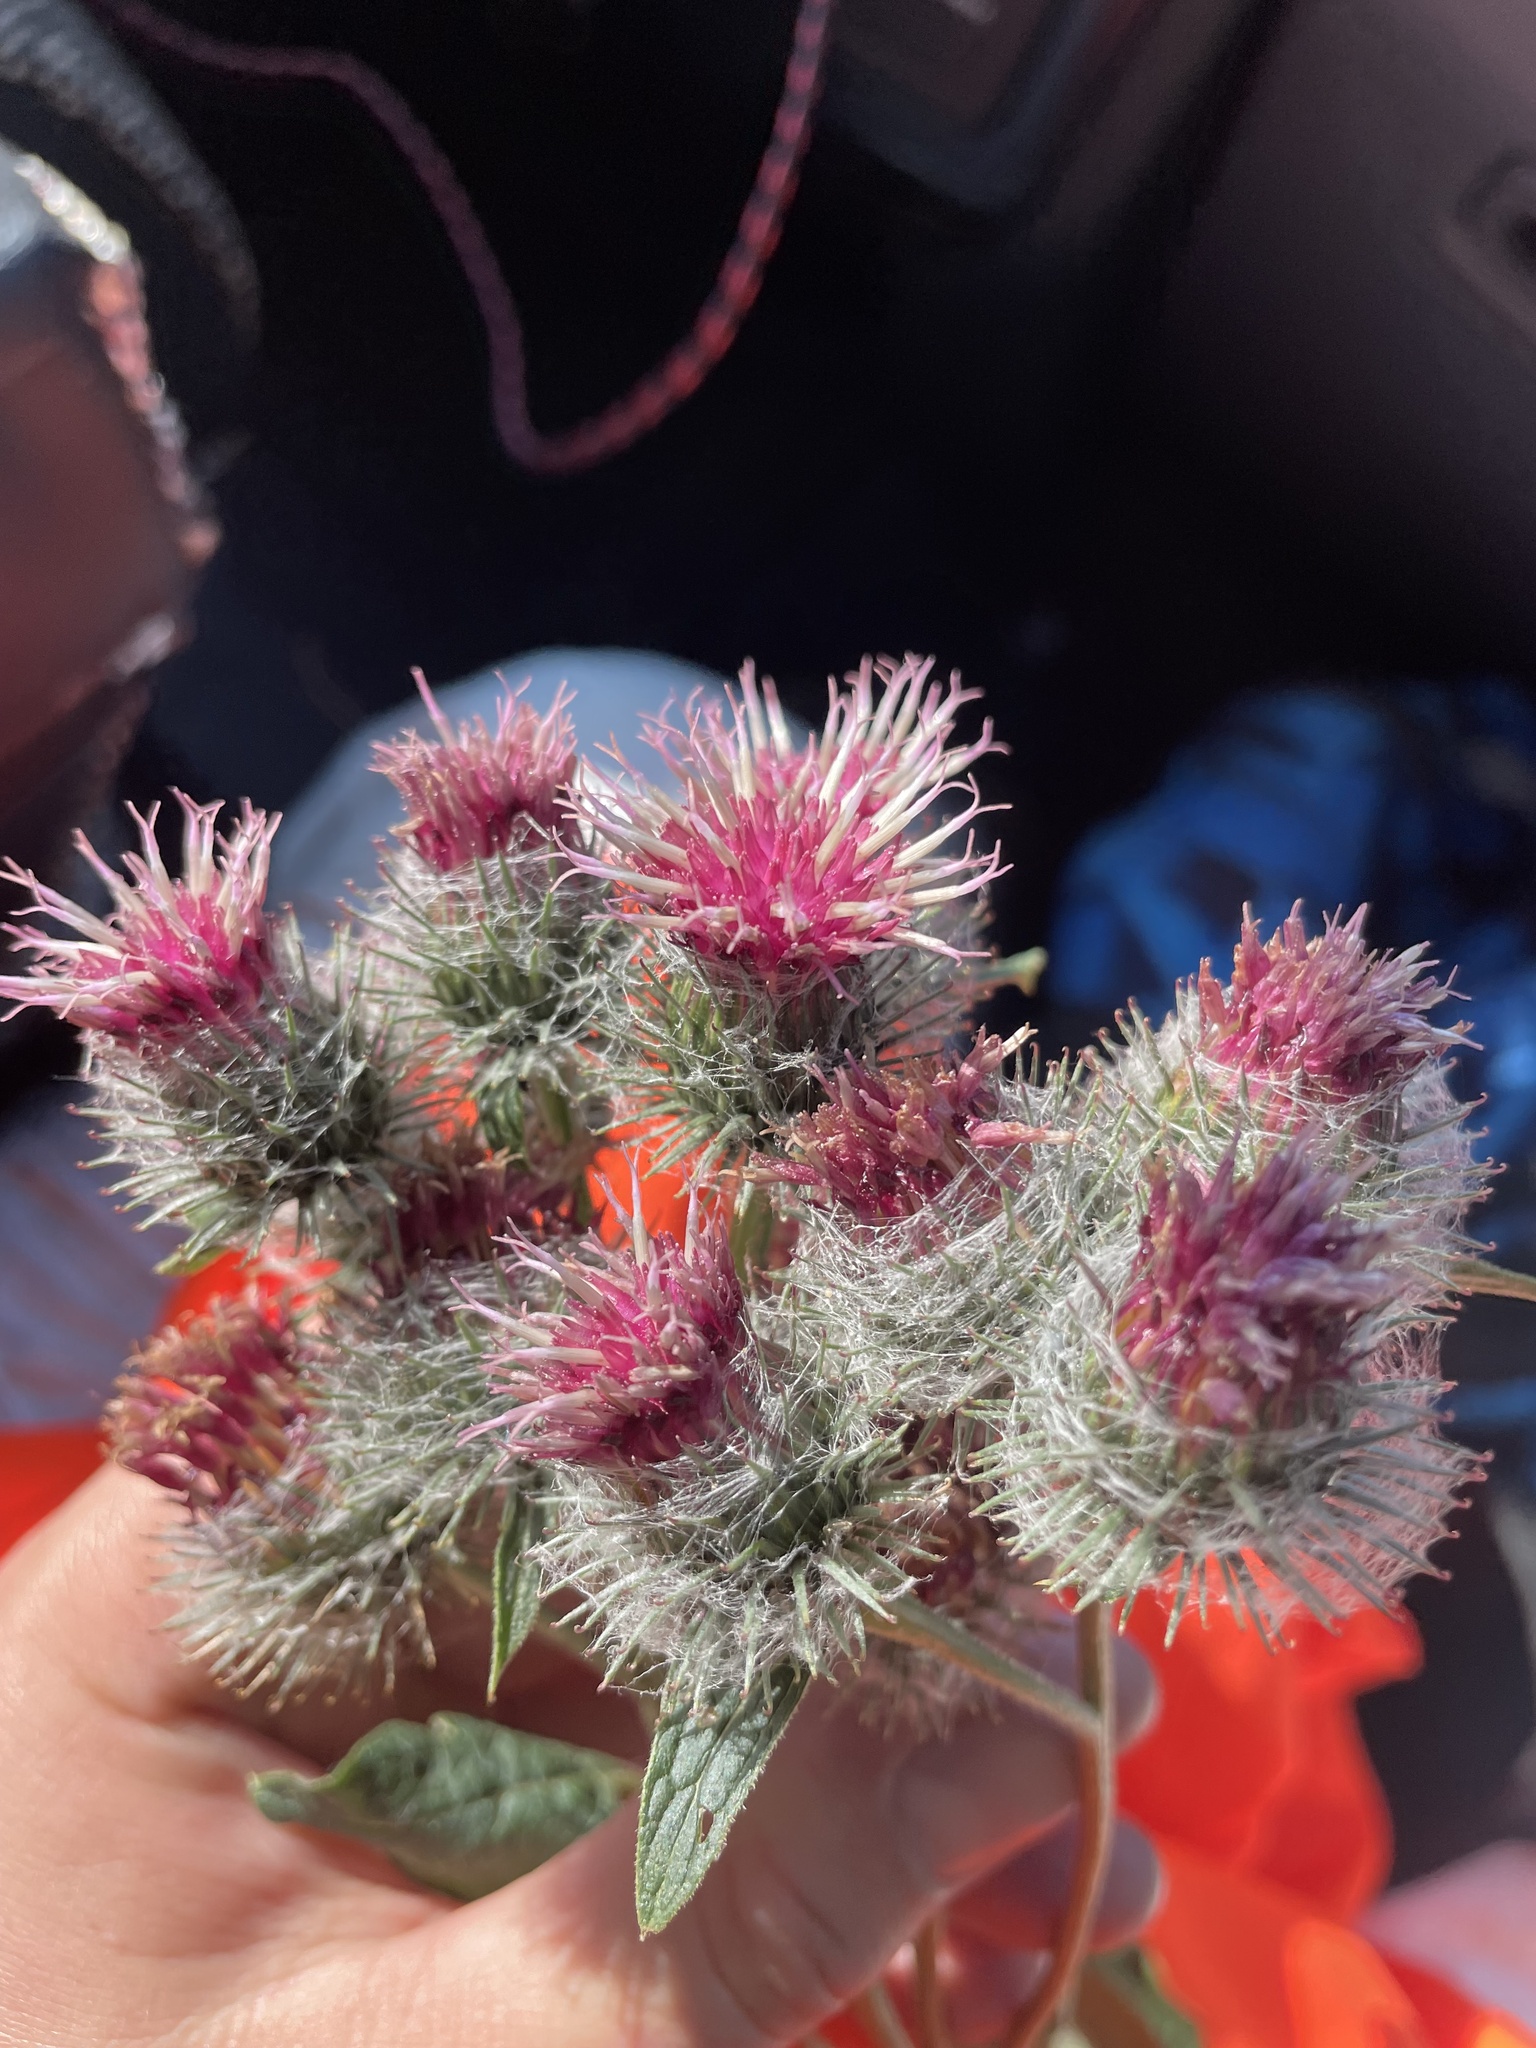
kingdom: Plantae
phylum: Tracheophyta
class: Magnoliopsida
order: Asterales
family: Asteraceae
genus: Arctium
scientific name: Arctium tomentosum
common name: Woolly burdock
